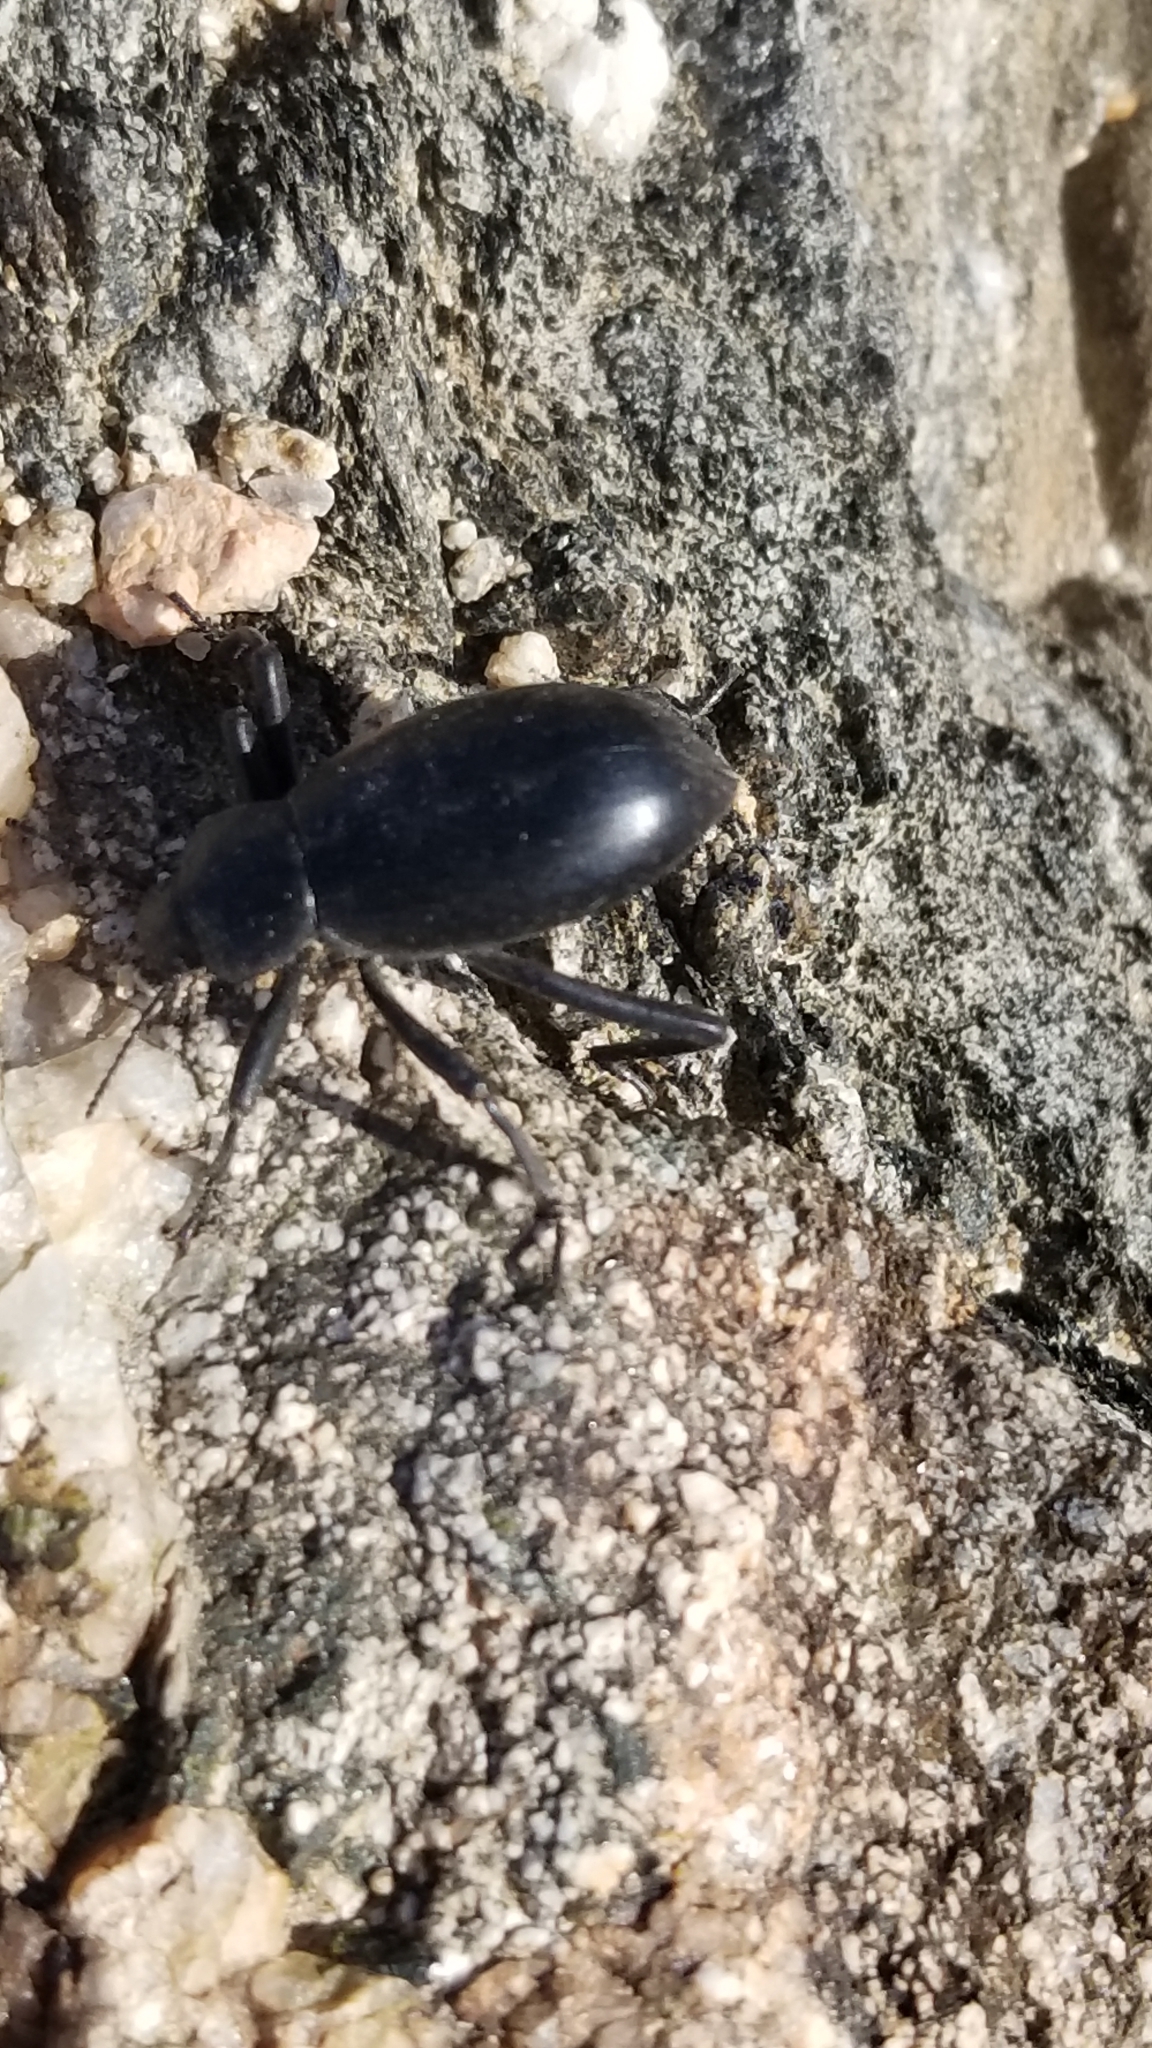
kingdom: Animalia
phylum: Arthropoda
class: Insecta
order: Coleoptera
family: Tenebrionidae
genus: Eleodes
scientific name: Eleodes armata
